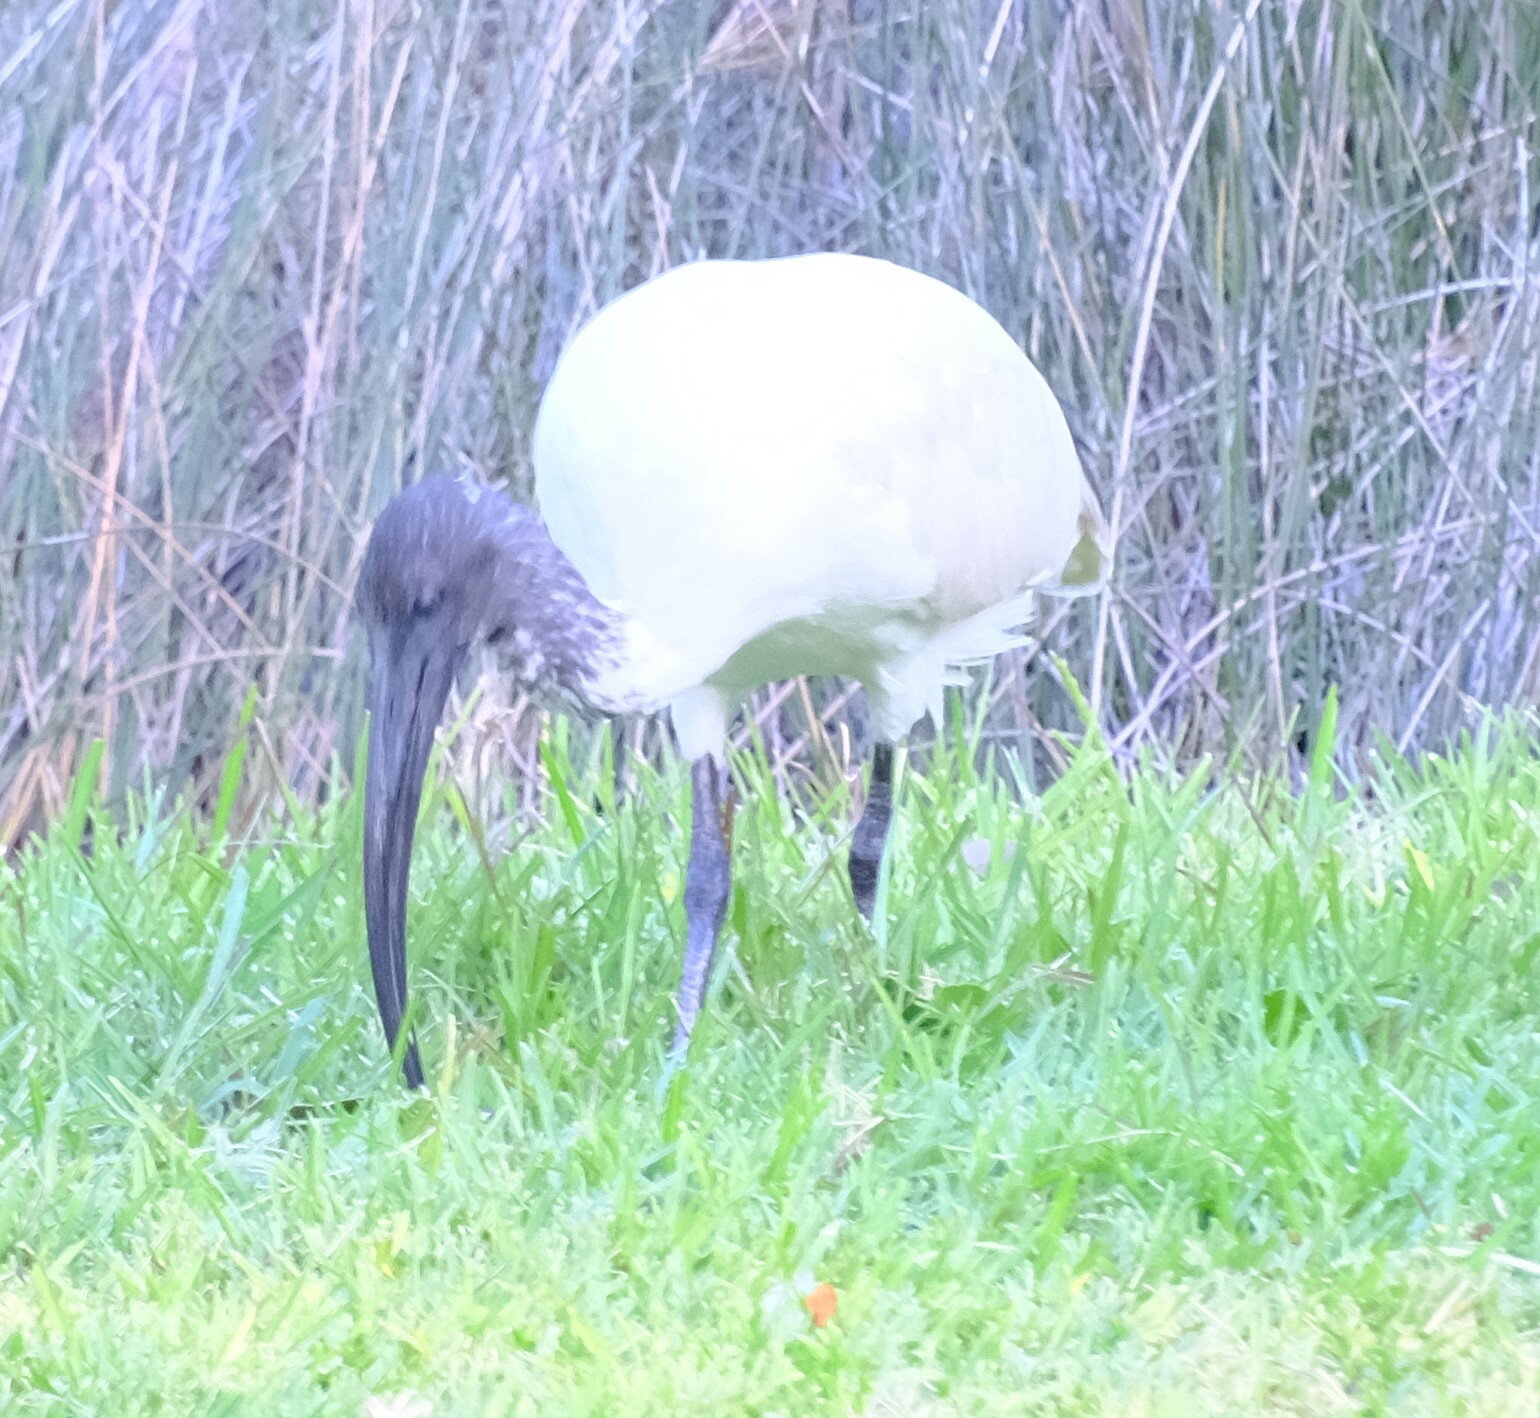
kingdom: Animalia
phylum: Chordata
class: Aves
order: Pelecaniformes
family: Threskiornithidae
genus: Threskiornis
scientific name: Threskiornis molucca
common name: Australian white ibis
